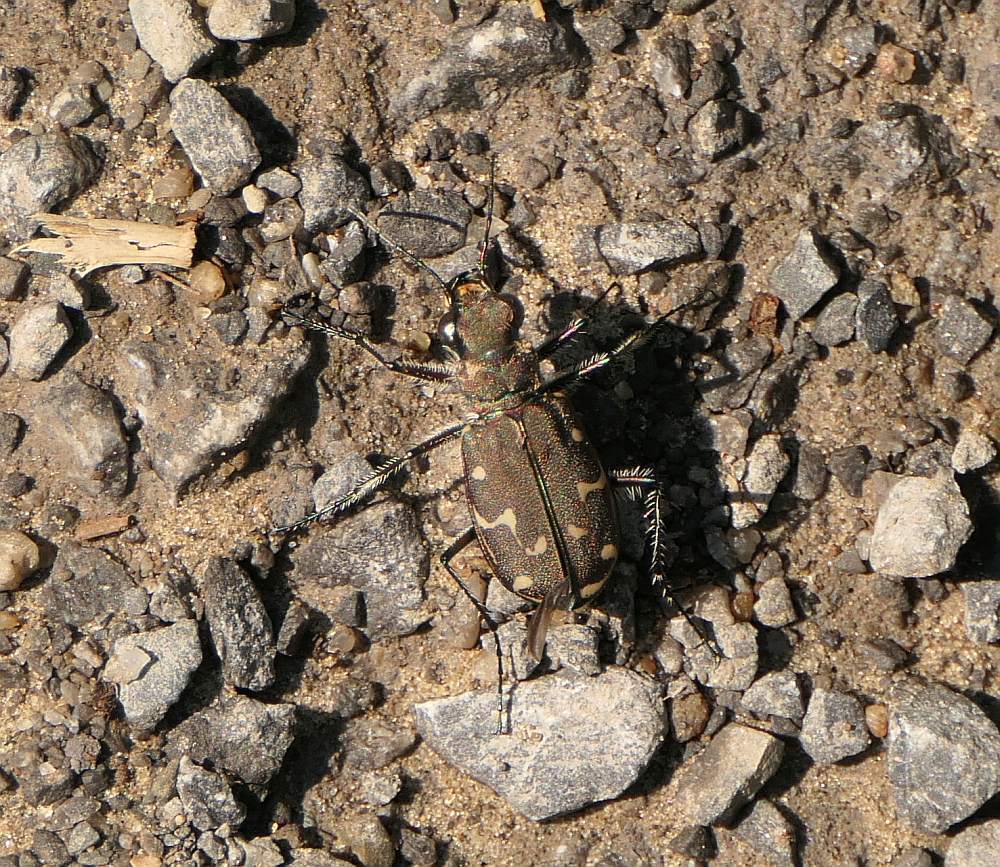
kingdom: Animalia
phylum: Arthropoda
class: Insecta
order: Coleoptera
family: Carabidae
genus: Cicindela
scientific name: Cicindela duodecimguttata
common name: Twelve-spotted tiger beetle
